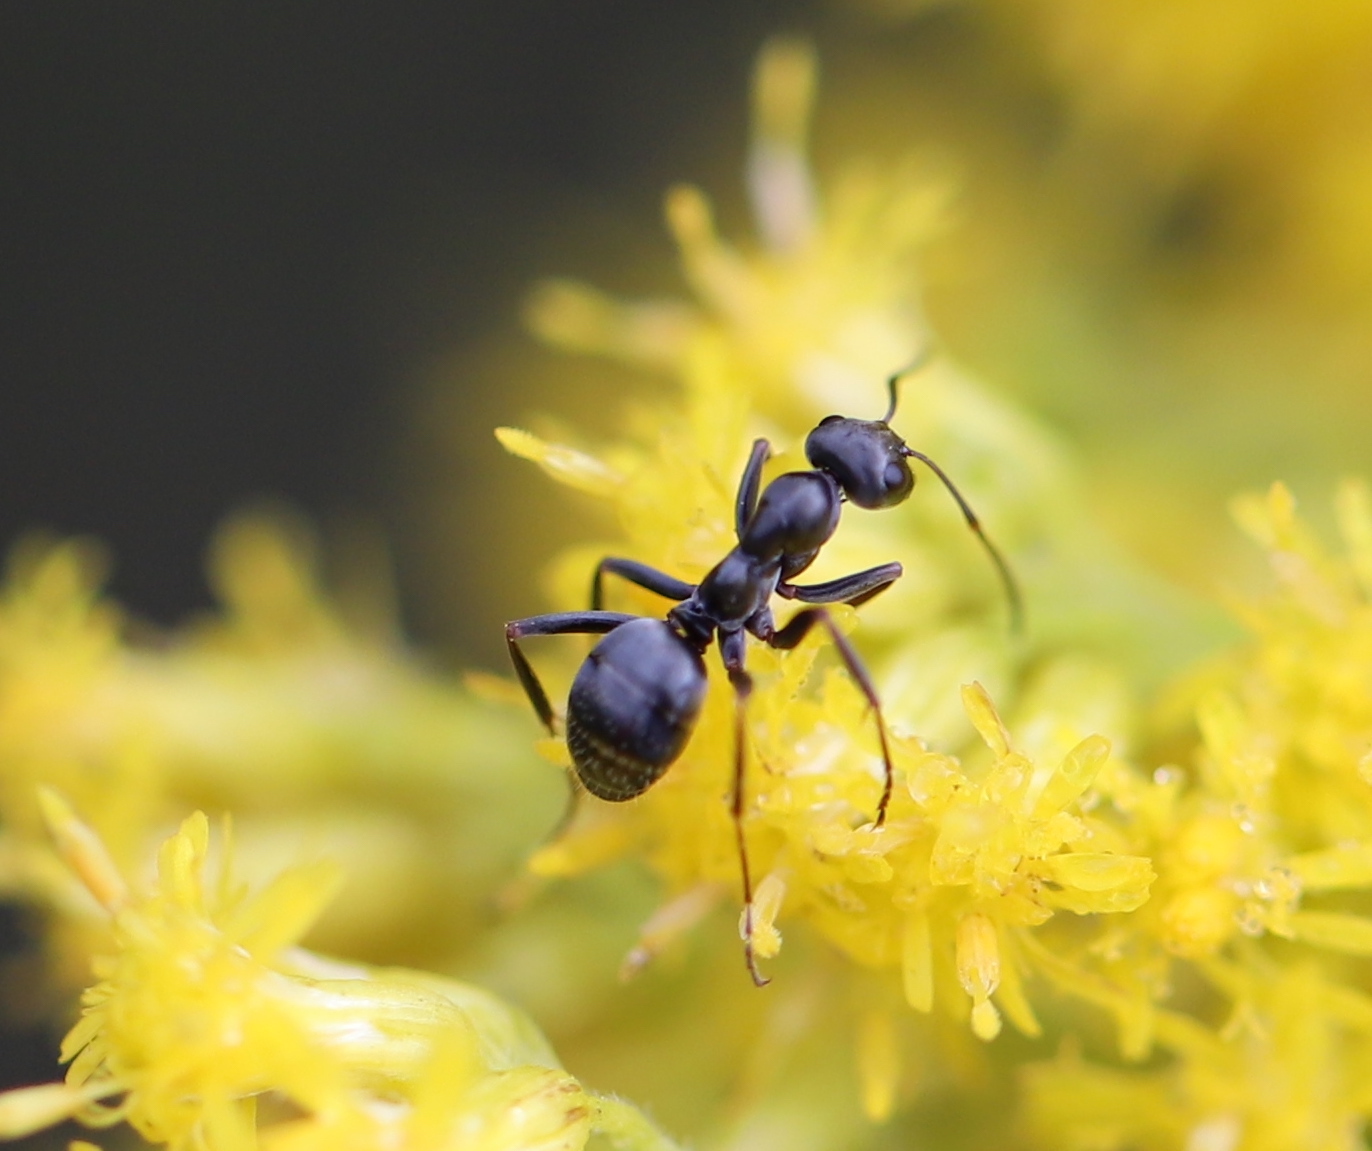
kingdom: Animalia
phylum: Arthropoda
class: Insecta
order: Hymenoptera
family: Formicidae
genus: Formica
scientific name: Formica
